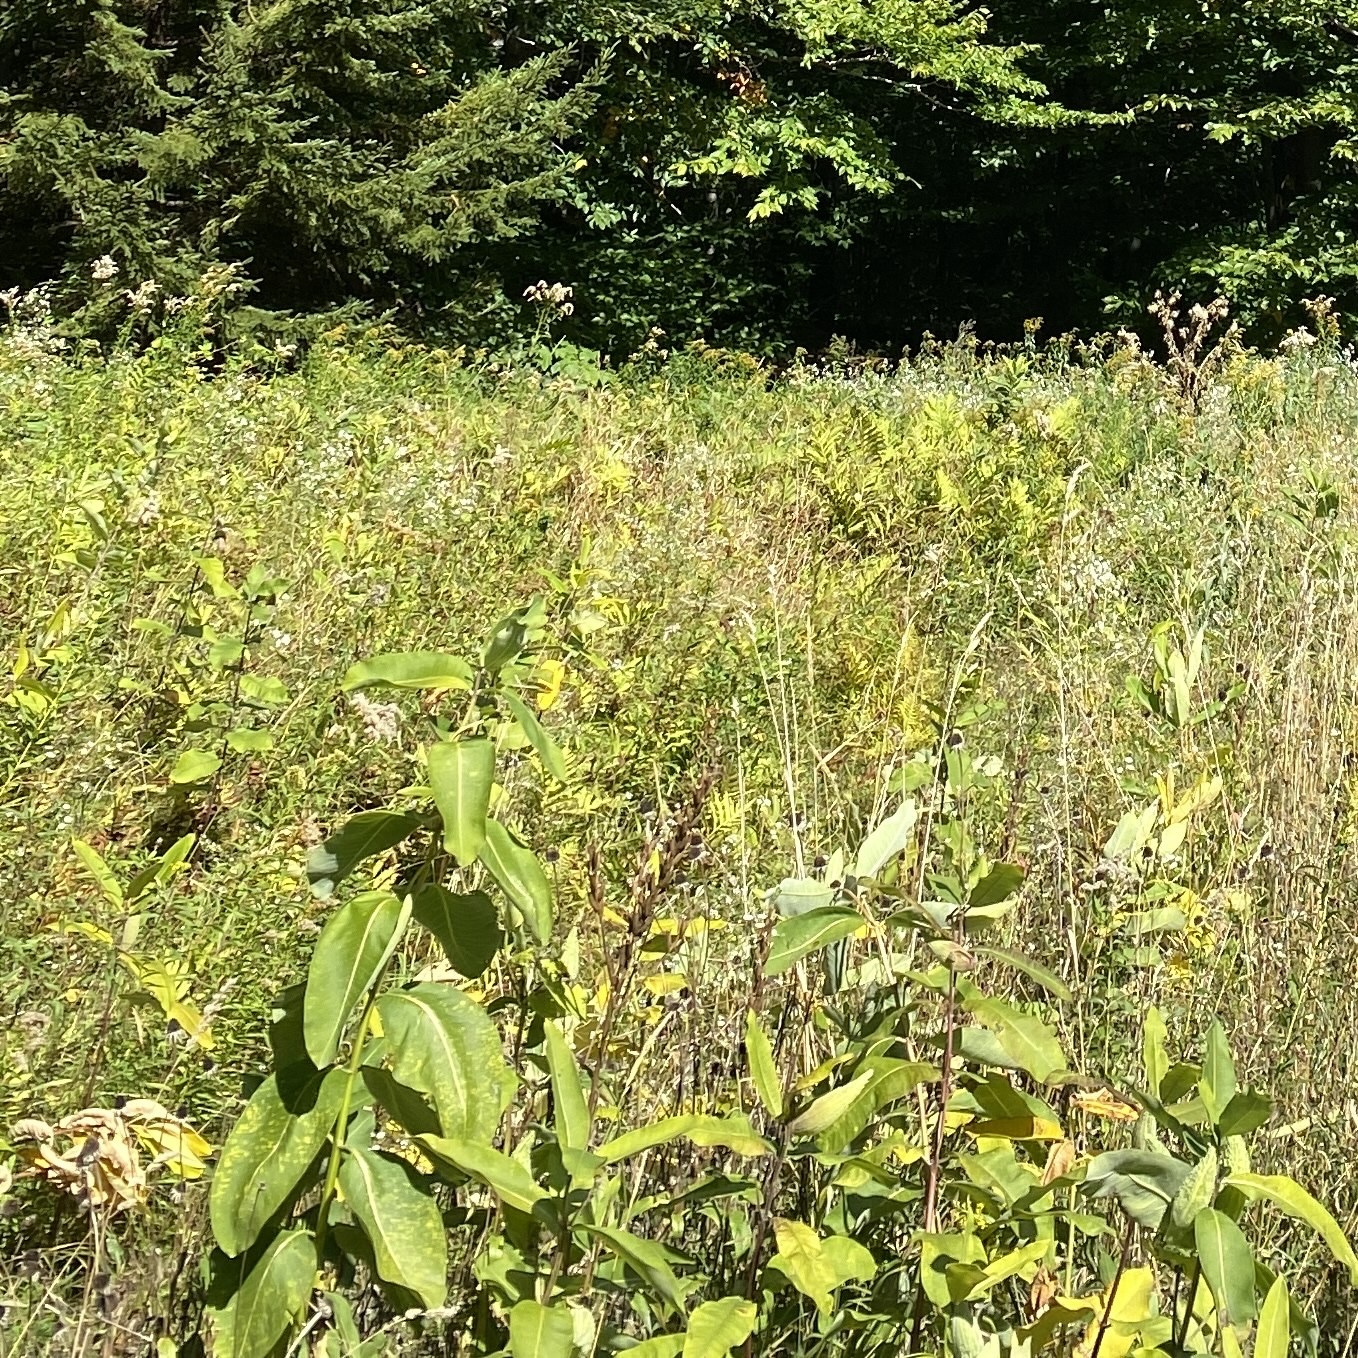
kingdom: Plantae
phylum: Tracheophyta
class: Magnoliopsida
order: Gentianales
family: Apocynaceae
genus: Asclepias
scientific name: Asclepias syriaca
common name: Common milkweed
